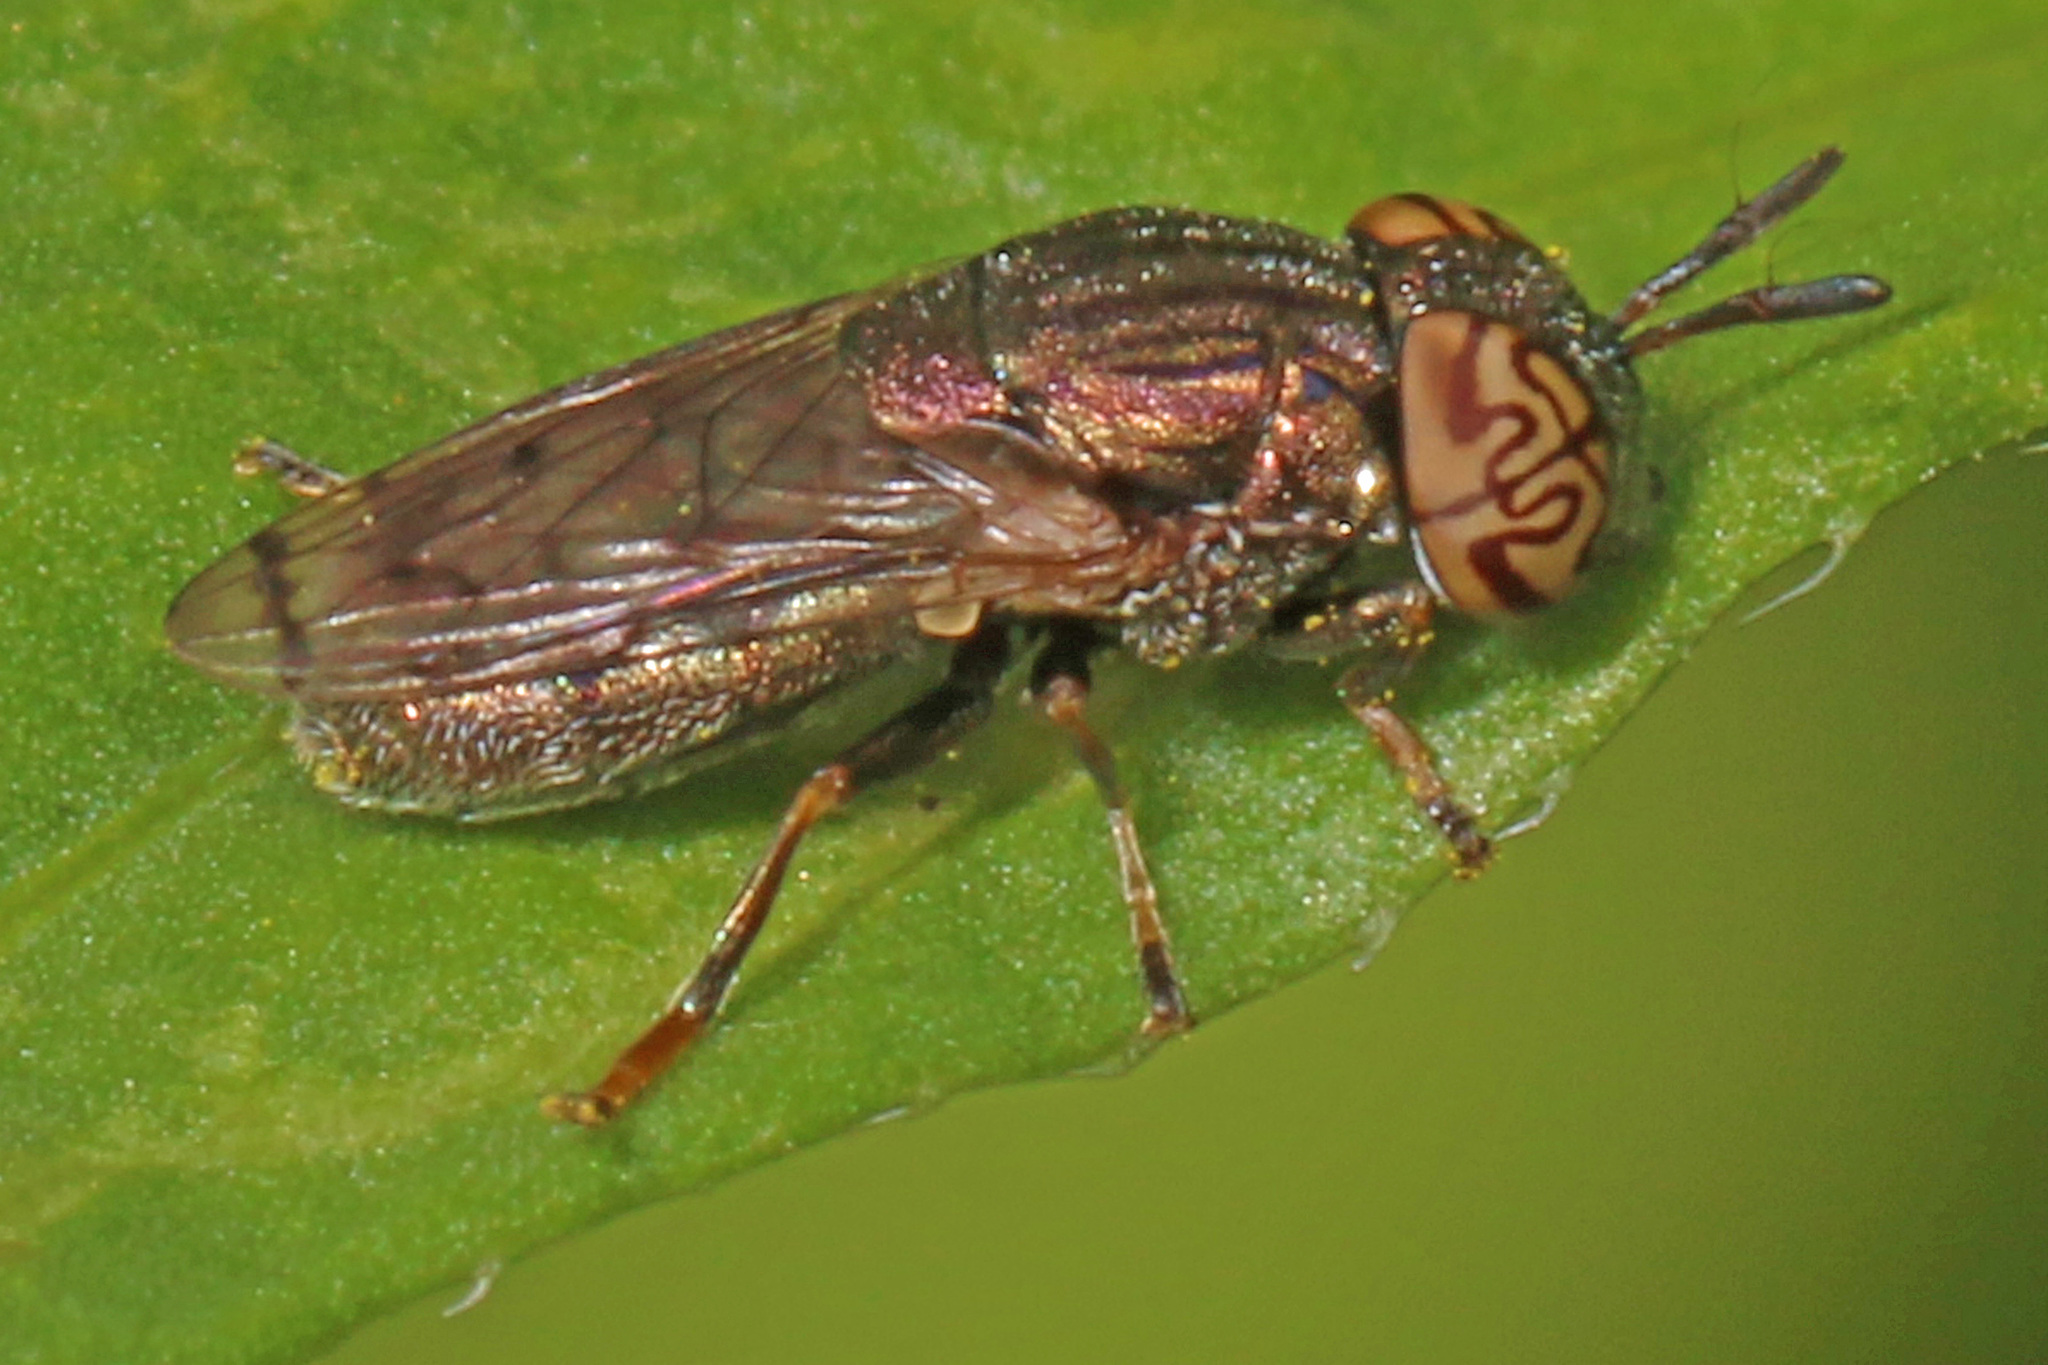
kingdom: Animalia
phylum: Arthropoda
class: Insecta
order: Diptera
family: Syrphidae
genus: Orthonevra
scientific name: Orthonevra nitida
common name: Wavy mucksucker
